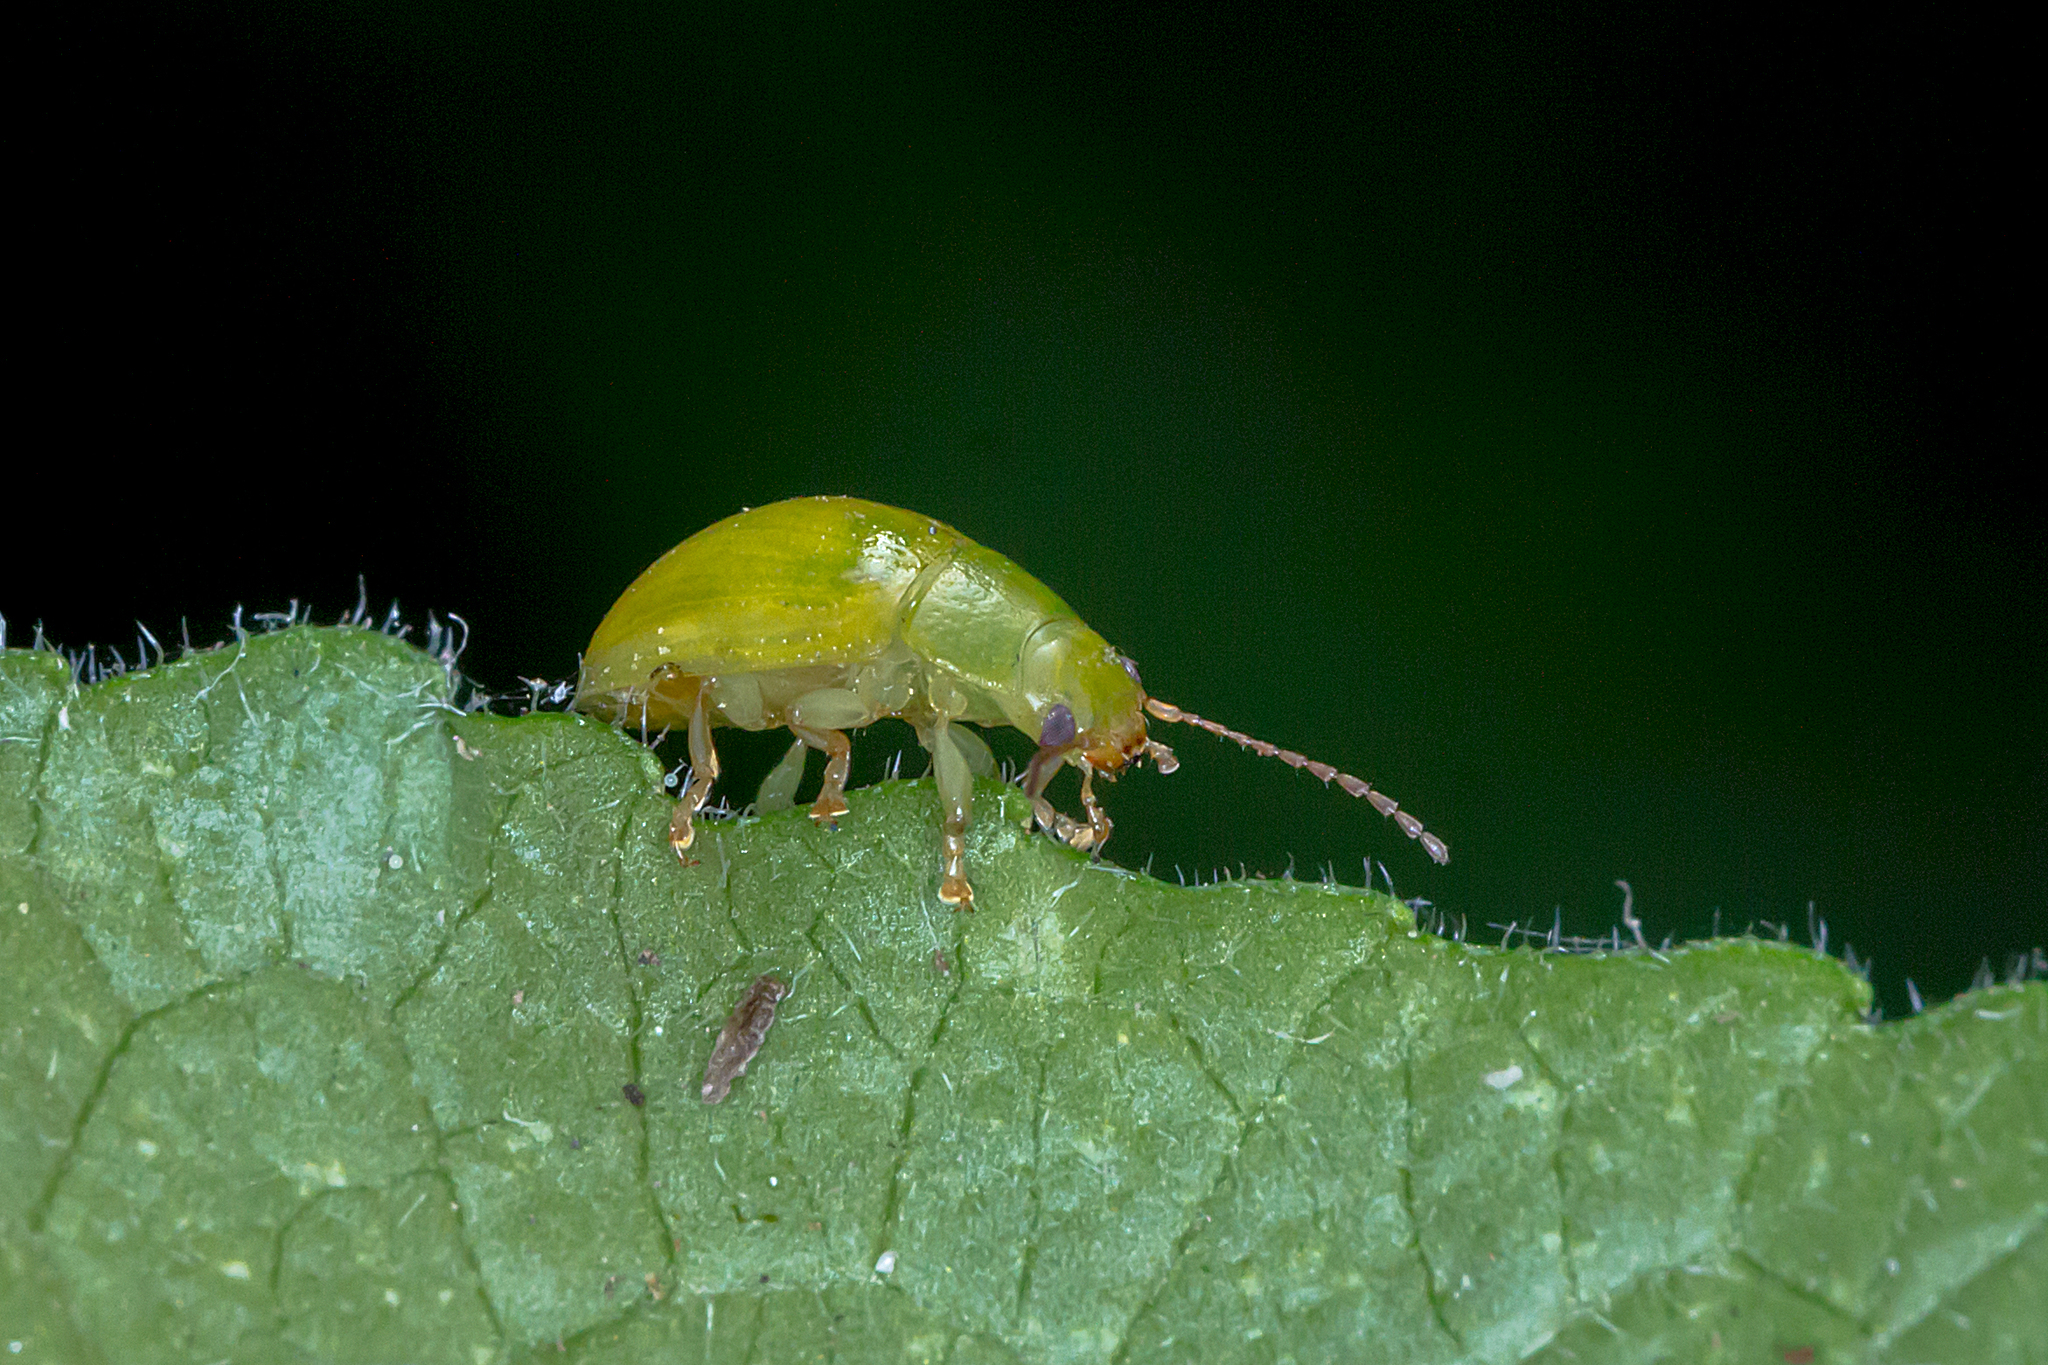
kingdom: Animalia
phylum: Arthropoda
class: Insecta
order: Coleoptera
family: Chrysomelidae
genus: Paropsides
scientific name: Paropsides
